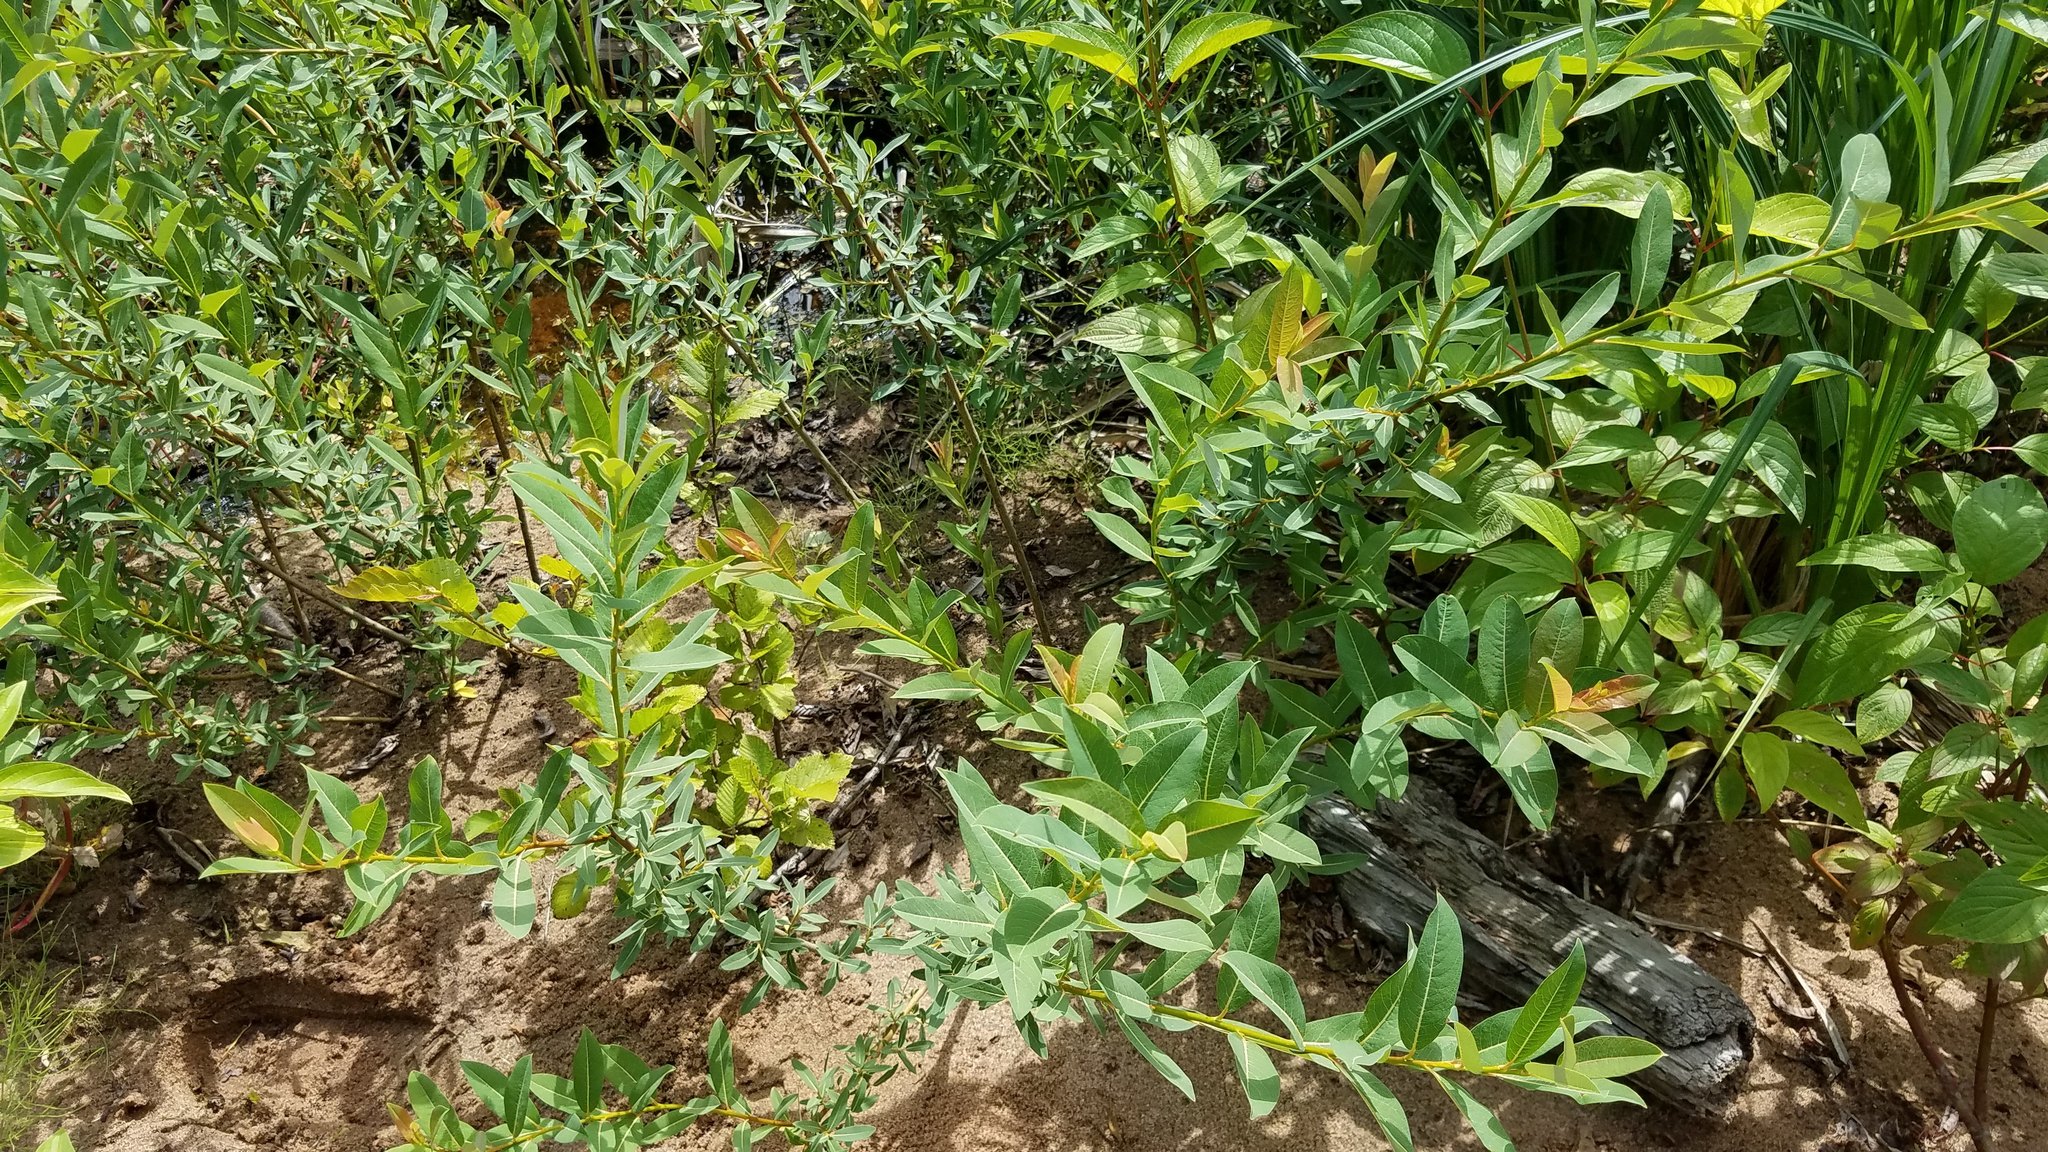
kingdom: Plantae
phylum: Tracheophyta
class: Magnoliopsida
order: Malpighiales
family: Salicaceae
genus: Salix
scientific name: Salix pedicellaris
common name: Bog willow
